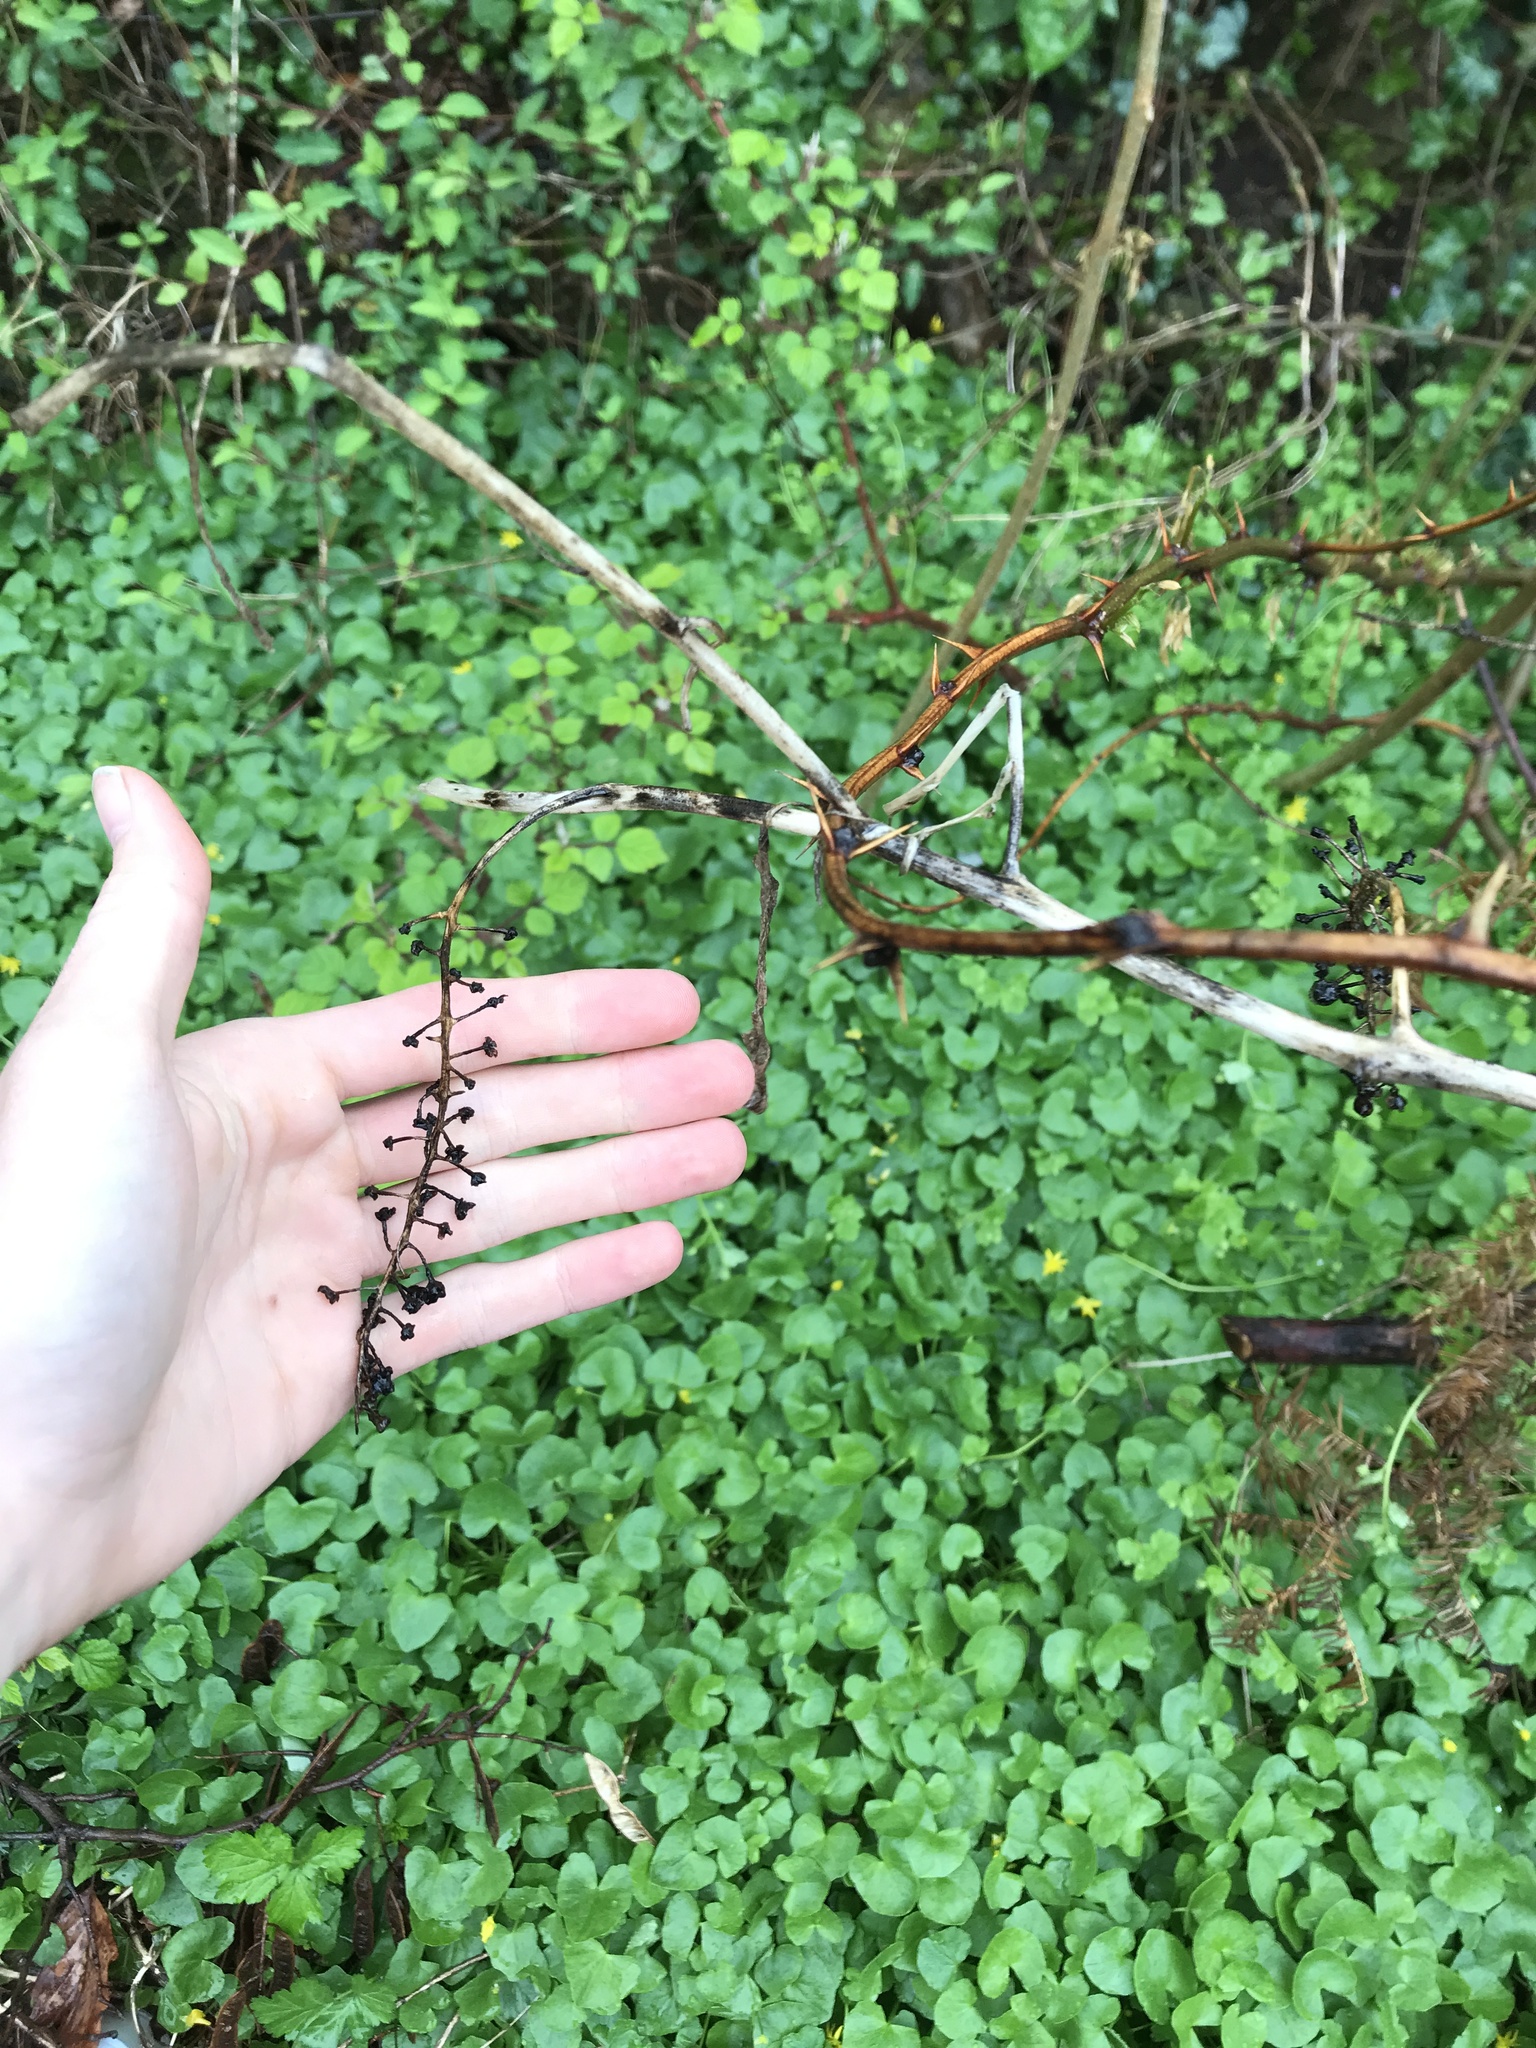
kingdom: Plantae
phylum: Tracheophyta
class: Magnoliopsida
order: Caryophyllales
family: Phytolaccaceae
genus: Phytolacca
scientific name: Phytolacca americana
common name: American pokeweed
